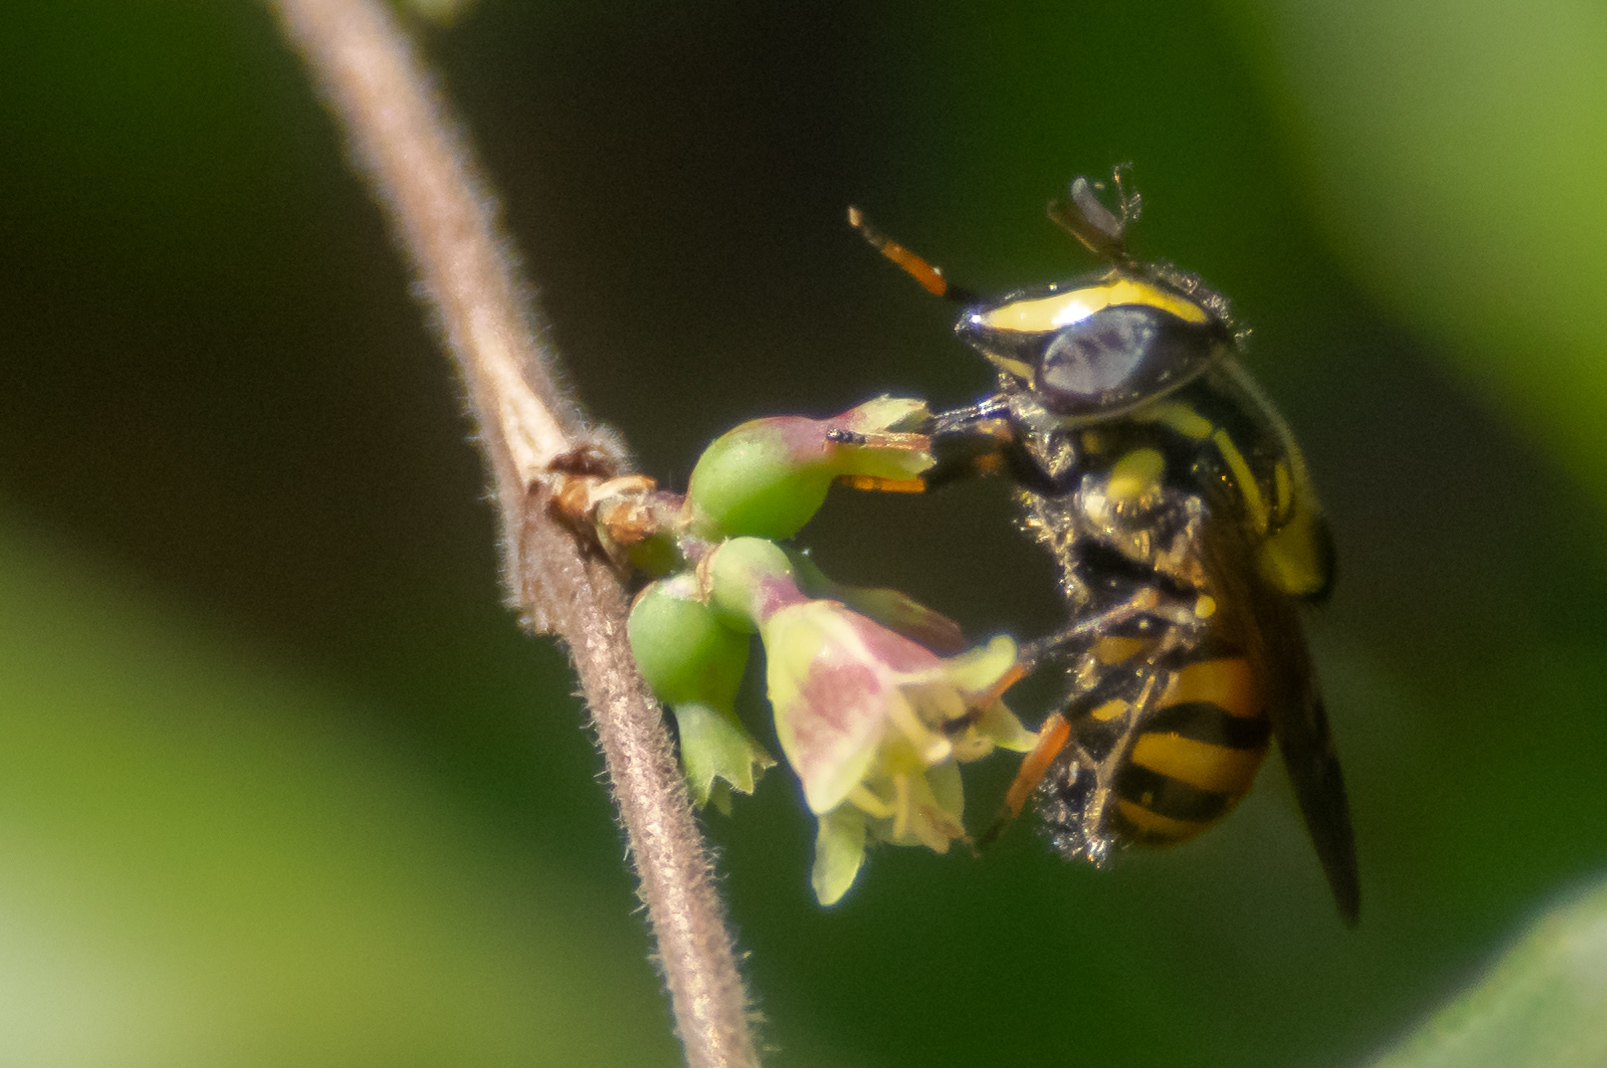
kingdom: Animalia
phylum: Arthropoda
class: Insecta
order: Diptera
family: Syrphidae
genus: Copestylum
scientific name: Copestylum vittatum
